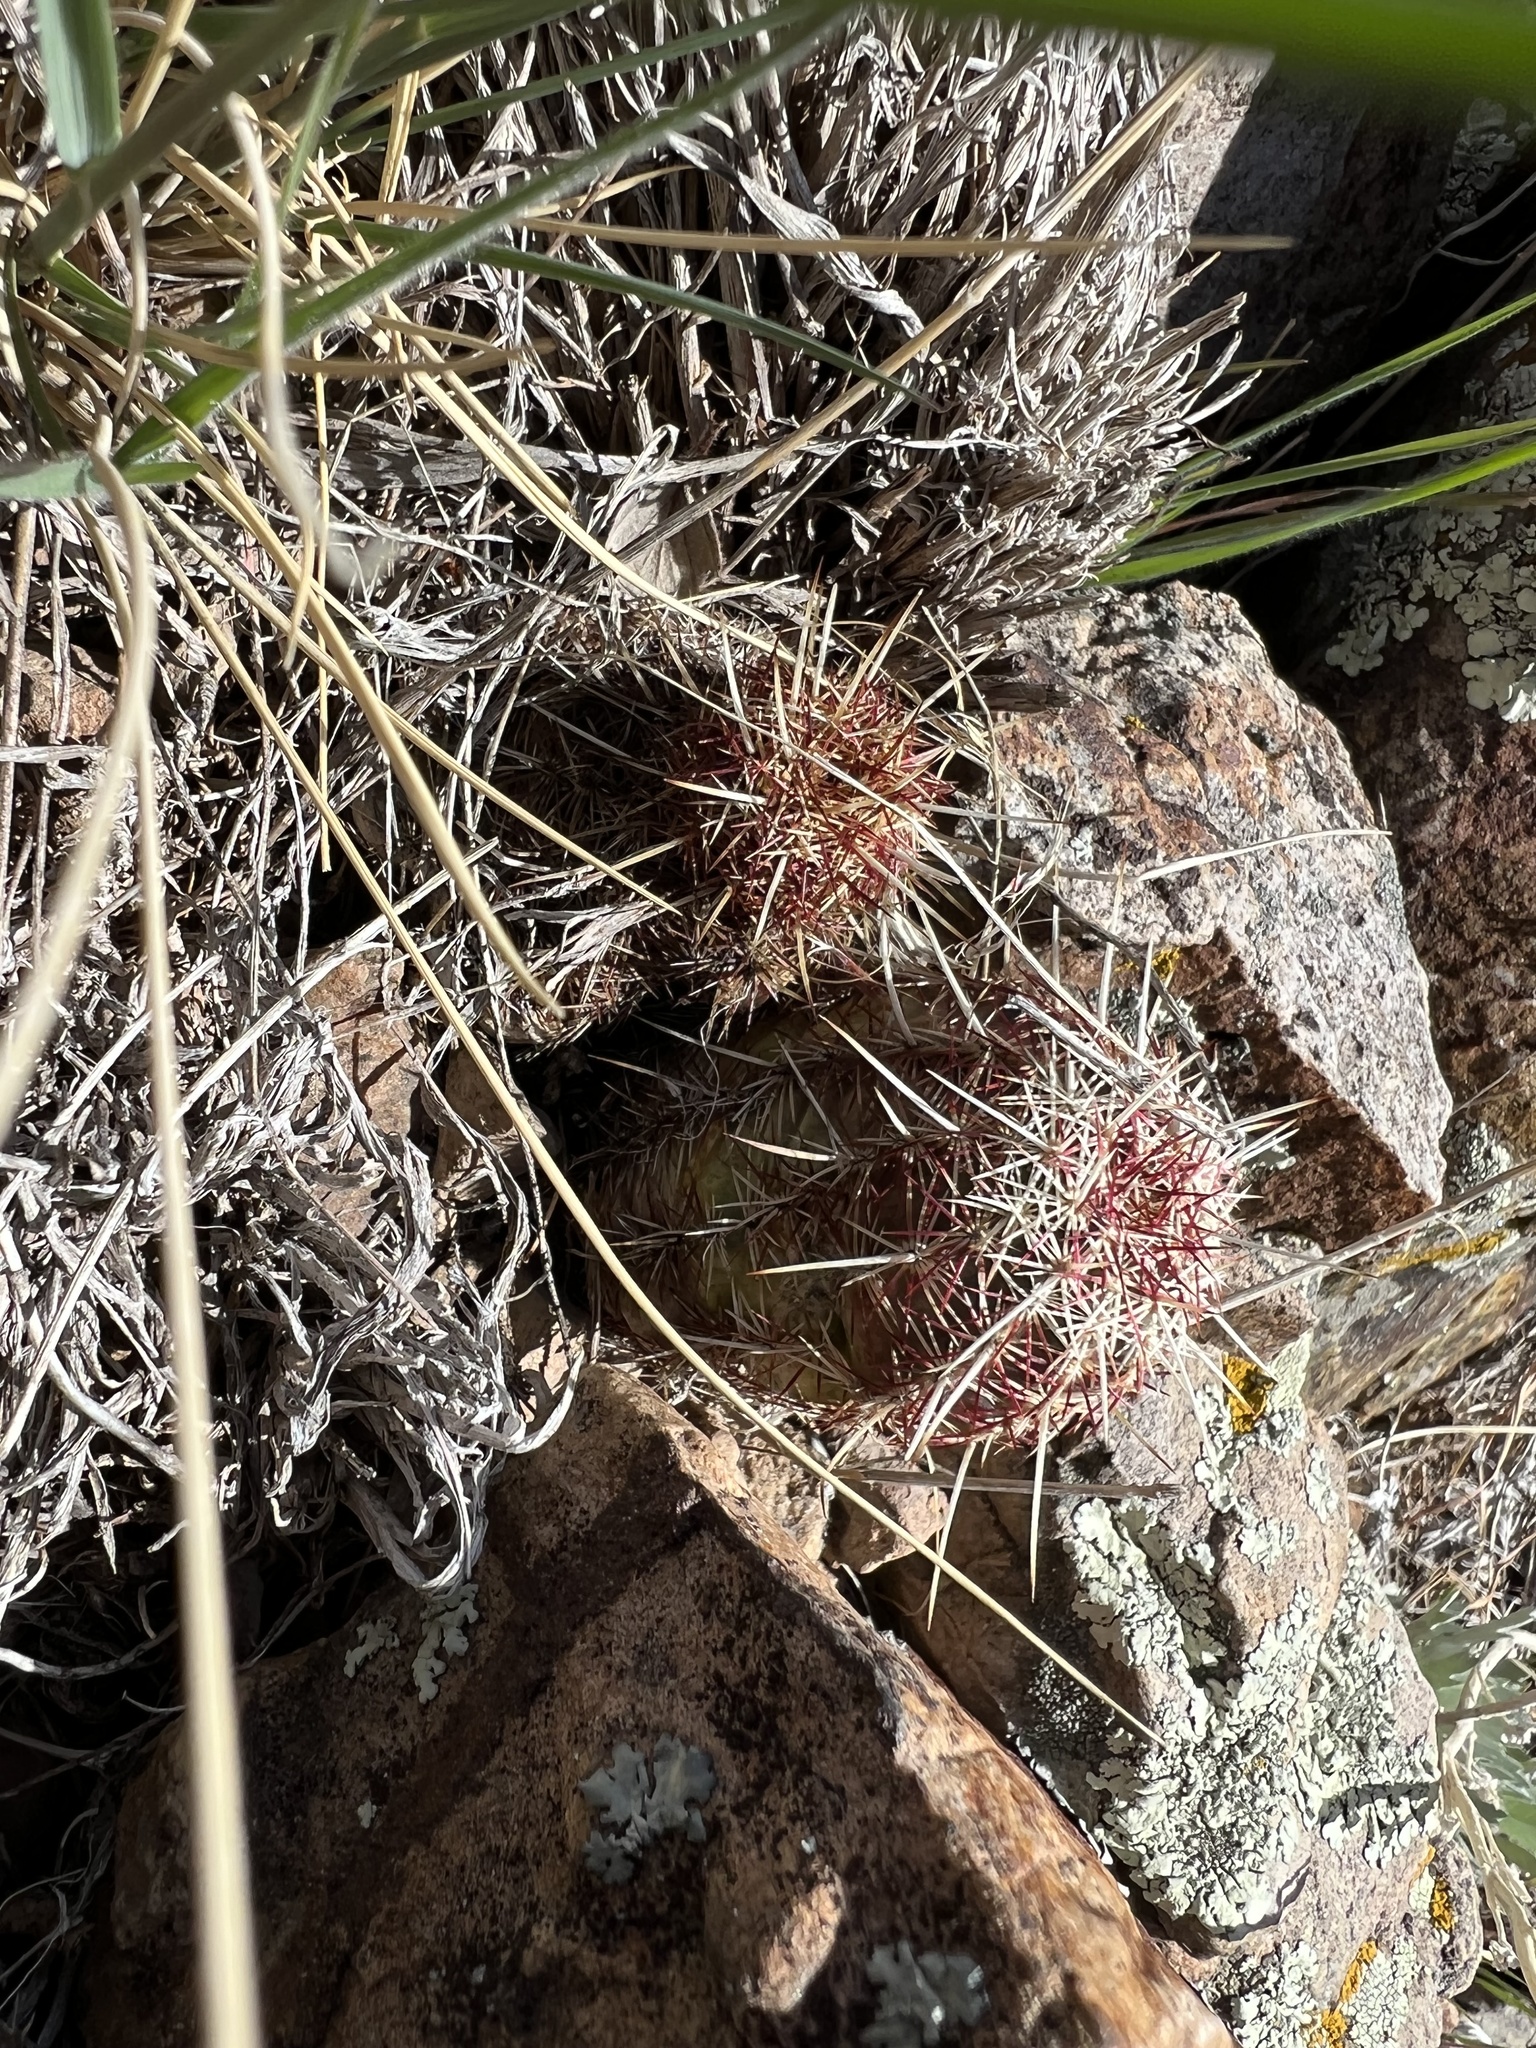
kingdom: Plantae
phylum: Tracheophyta
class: Magnoliopsida
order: Caryophyllales
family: Cactaceae
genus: Echinocereus
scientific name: Echinocereus viridiflorus
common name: Nylon hedgehog cactus
